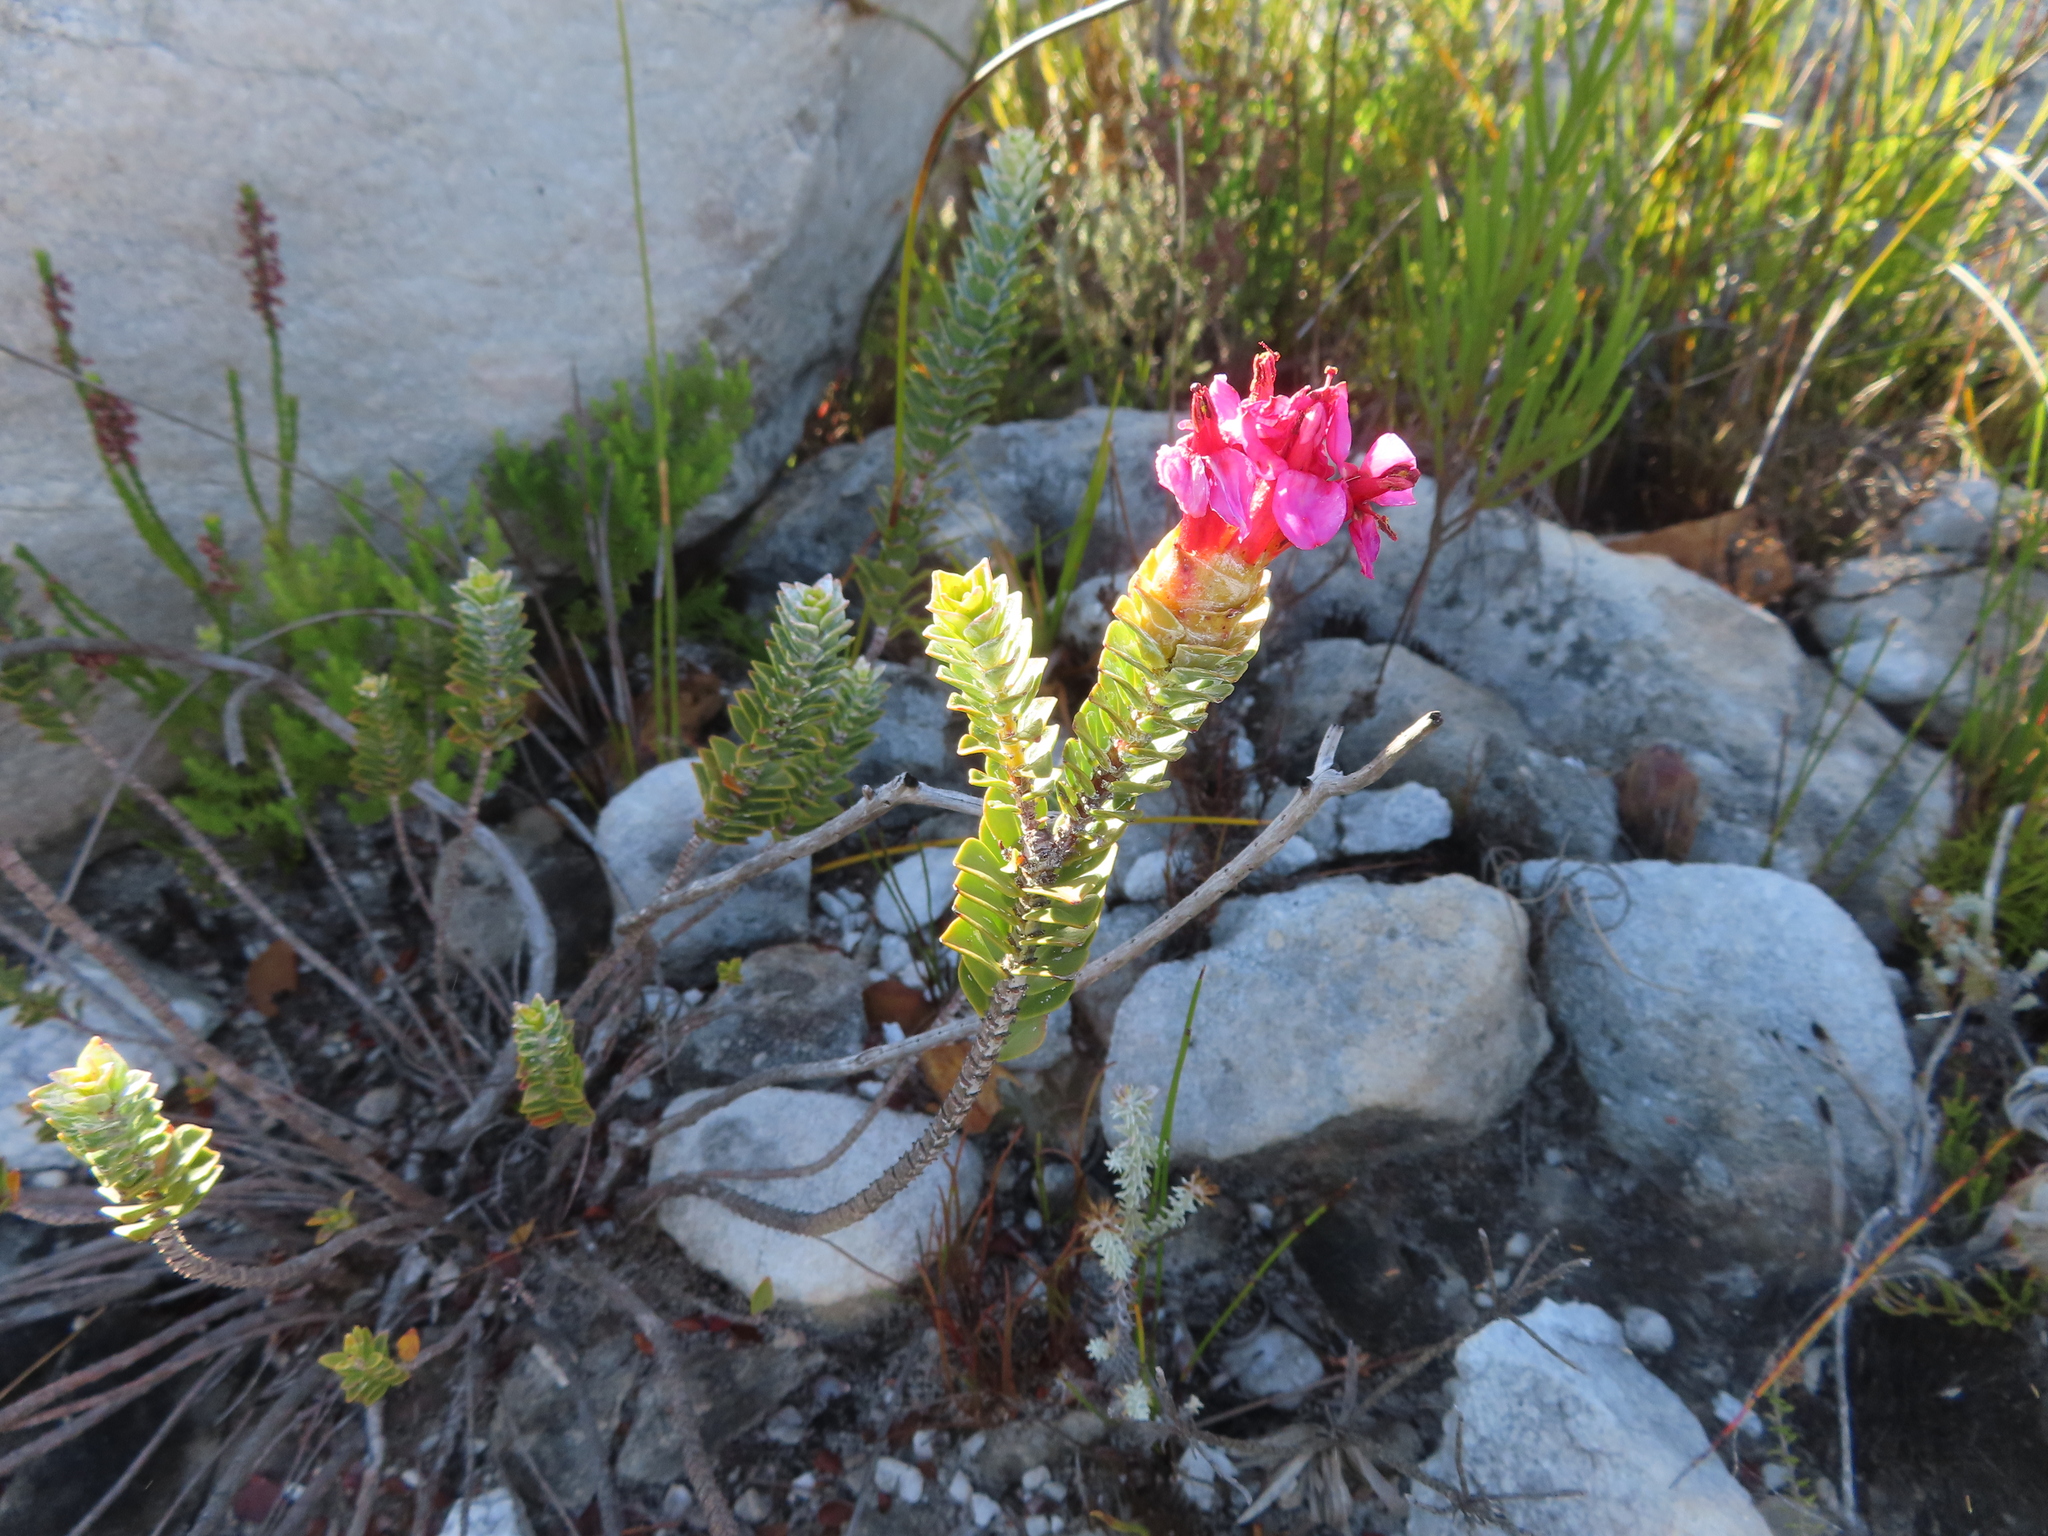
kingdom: Plantae
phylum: Tracheophyta
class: Magnoliopsida
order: Myrtales
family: Penaeaceae
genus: Saltera
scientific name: Saltera sarcocolla
